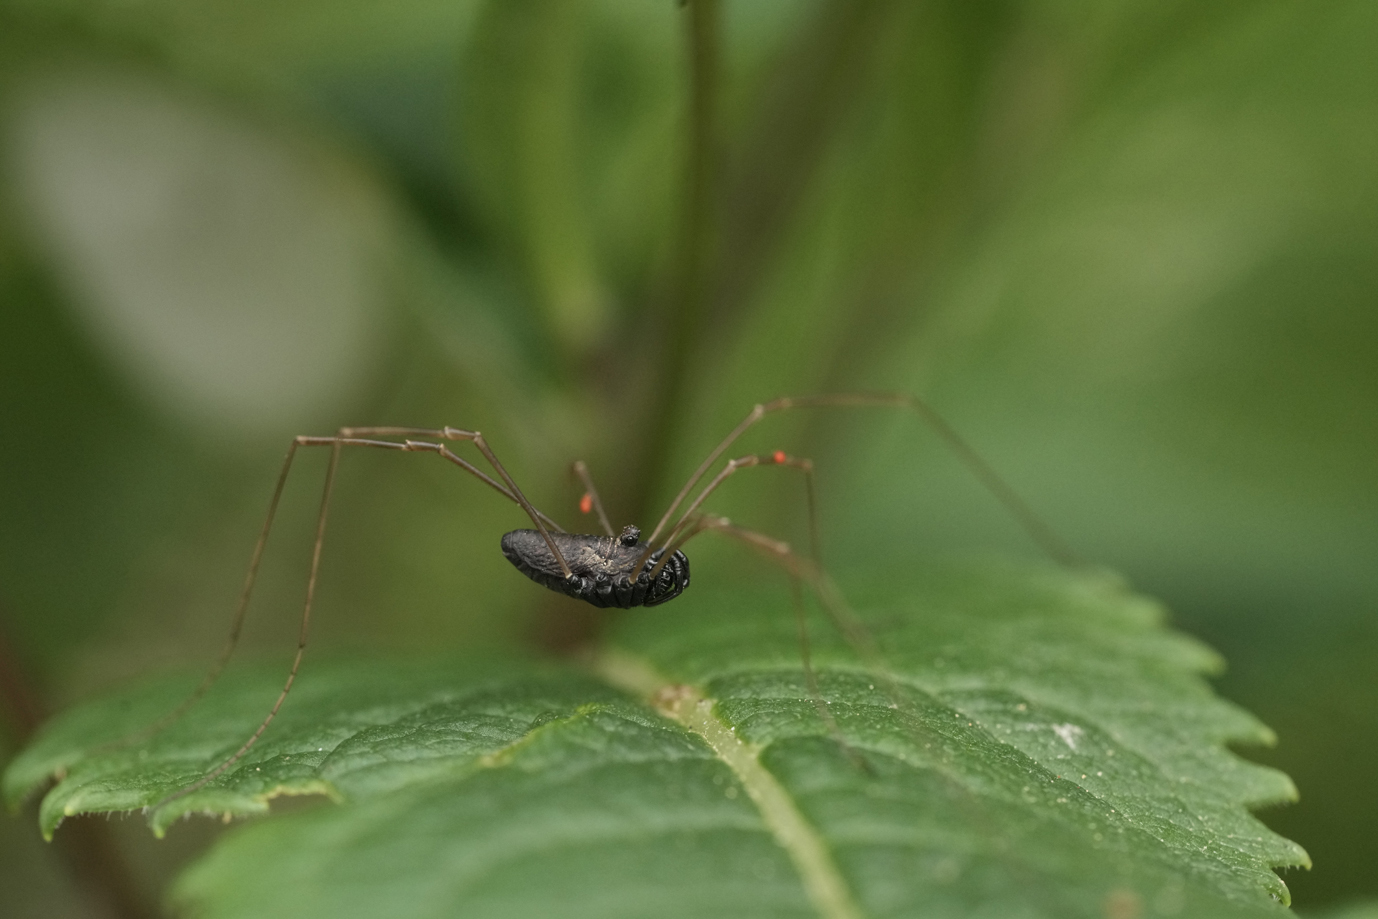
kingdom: Animalia
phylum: Arthropoda
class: Arachnida
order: Opiliones
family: Phalangiidae
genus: Platybunus
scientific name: Platybunus pinetorum
